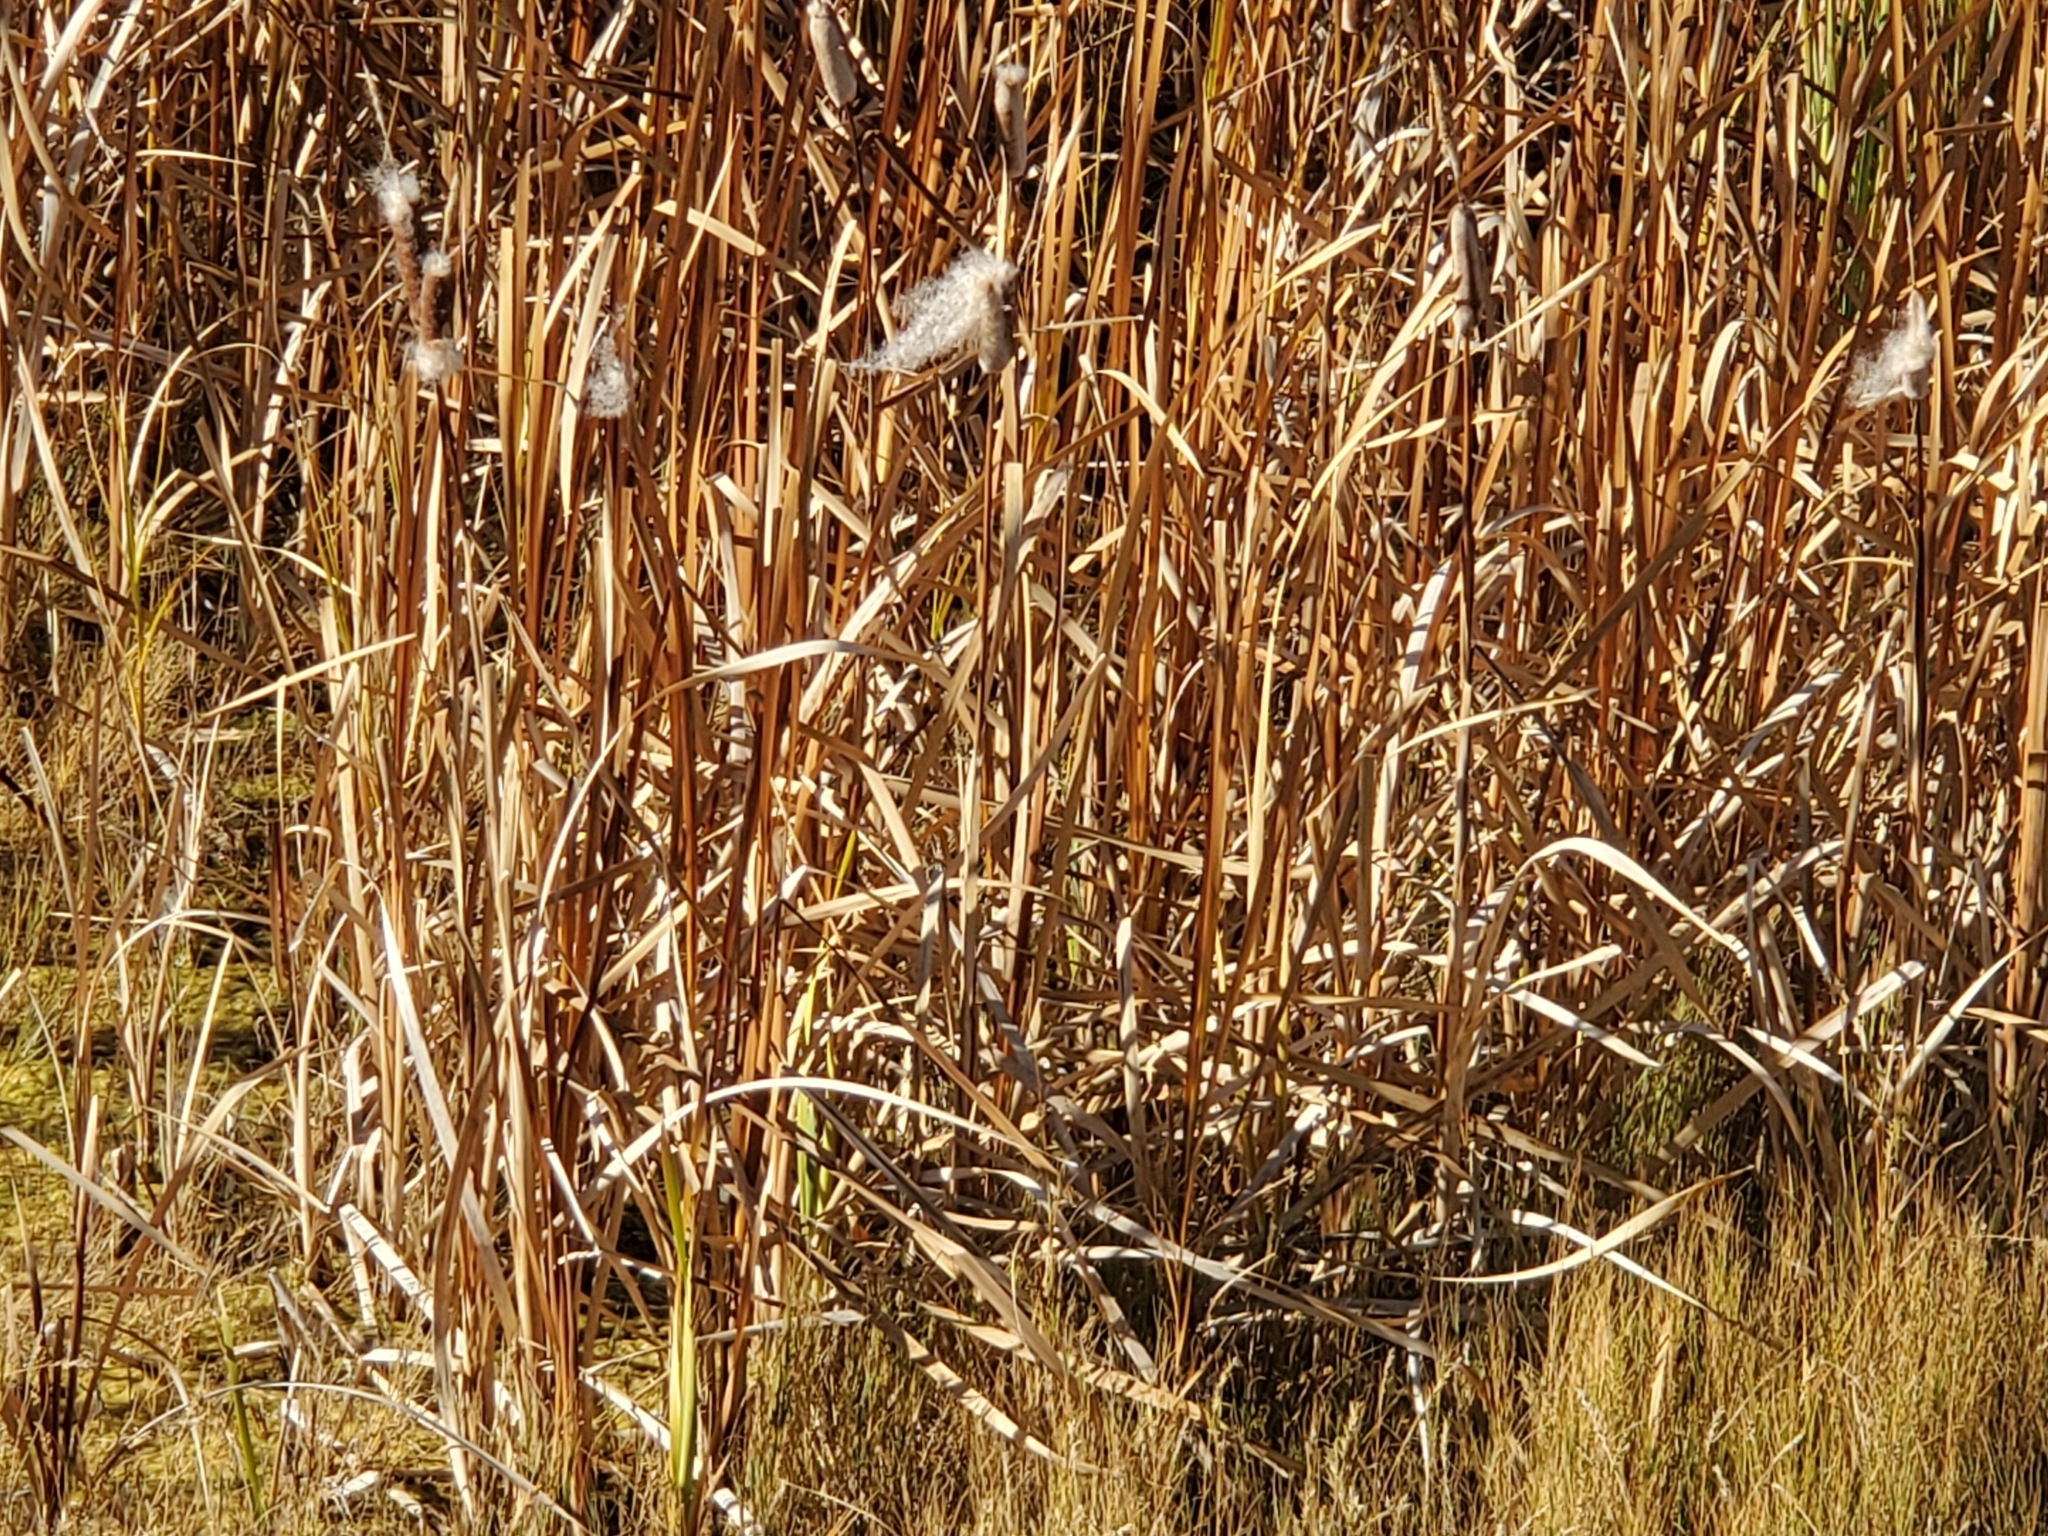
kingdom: Plantae
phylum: Tracheophyta
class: Liliopsida
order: Poales
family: Typhaceae
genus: Typha
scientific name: Typha latifolia
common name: Broadleaf cattail
